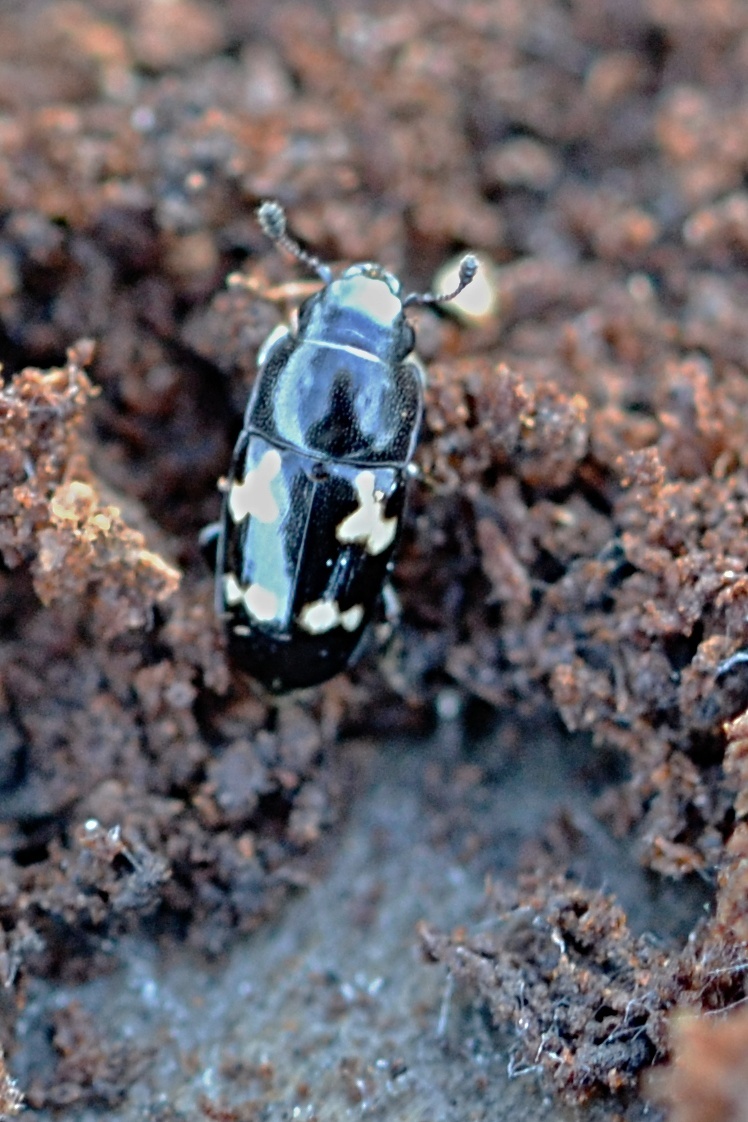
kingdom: Animalia
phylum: Arthropoda
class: Insecta
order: Coleoptera
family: Nitidulidae
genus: Glischrochilus
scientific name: Glischrochilus quadriguttatus
